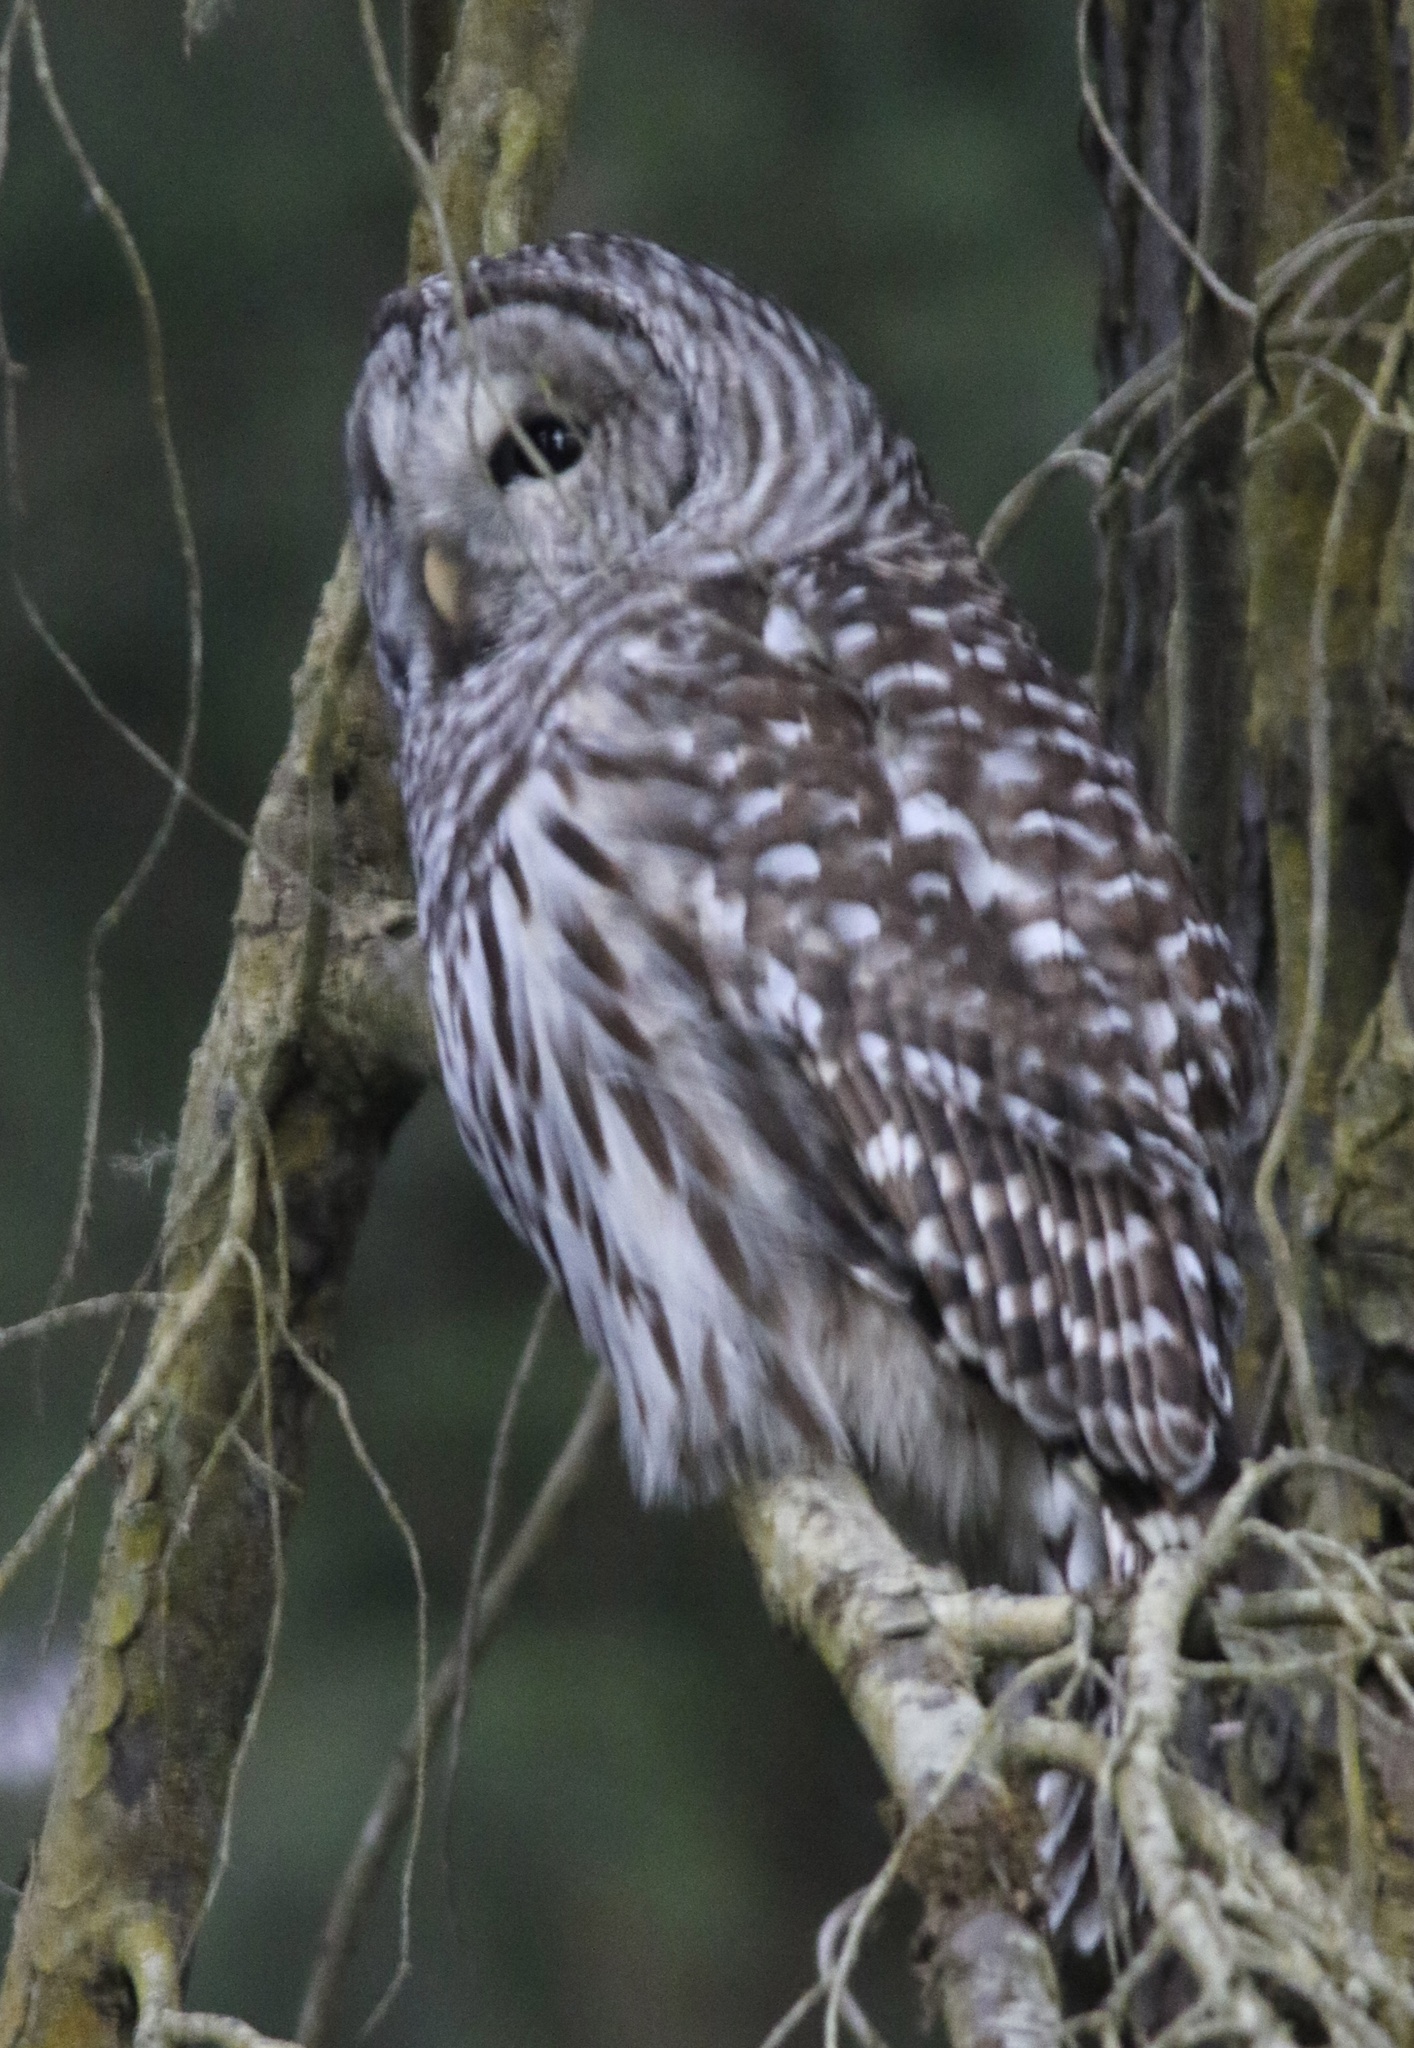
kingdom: Animalia
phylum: Chordata
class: Aves
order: Strigiformes
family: Strigidae
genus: Strix
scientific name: Strix varia
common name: Barred owl
